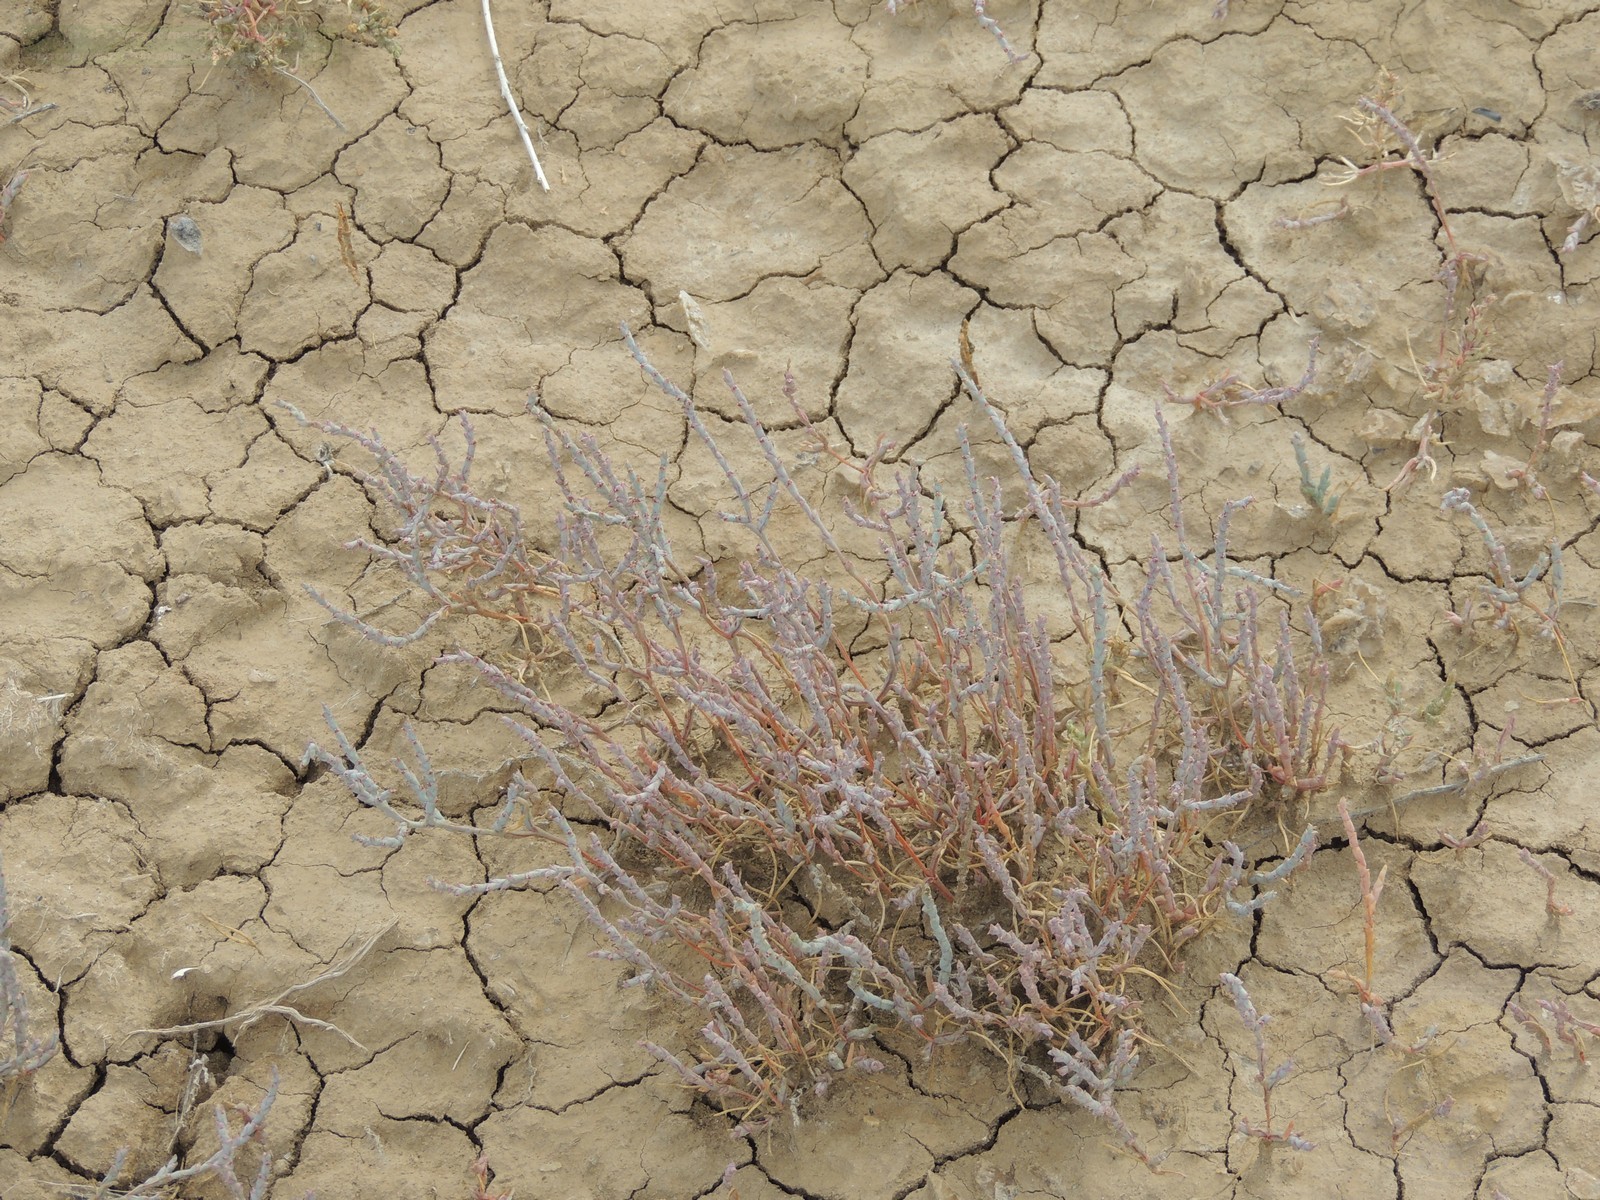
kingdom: Plantae
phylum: Tracheophyta
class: Magnoliopsida
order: Caryophyllales
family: Amaranthaceae
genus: Ofaiston
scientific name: Ofaiston monandrum
